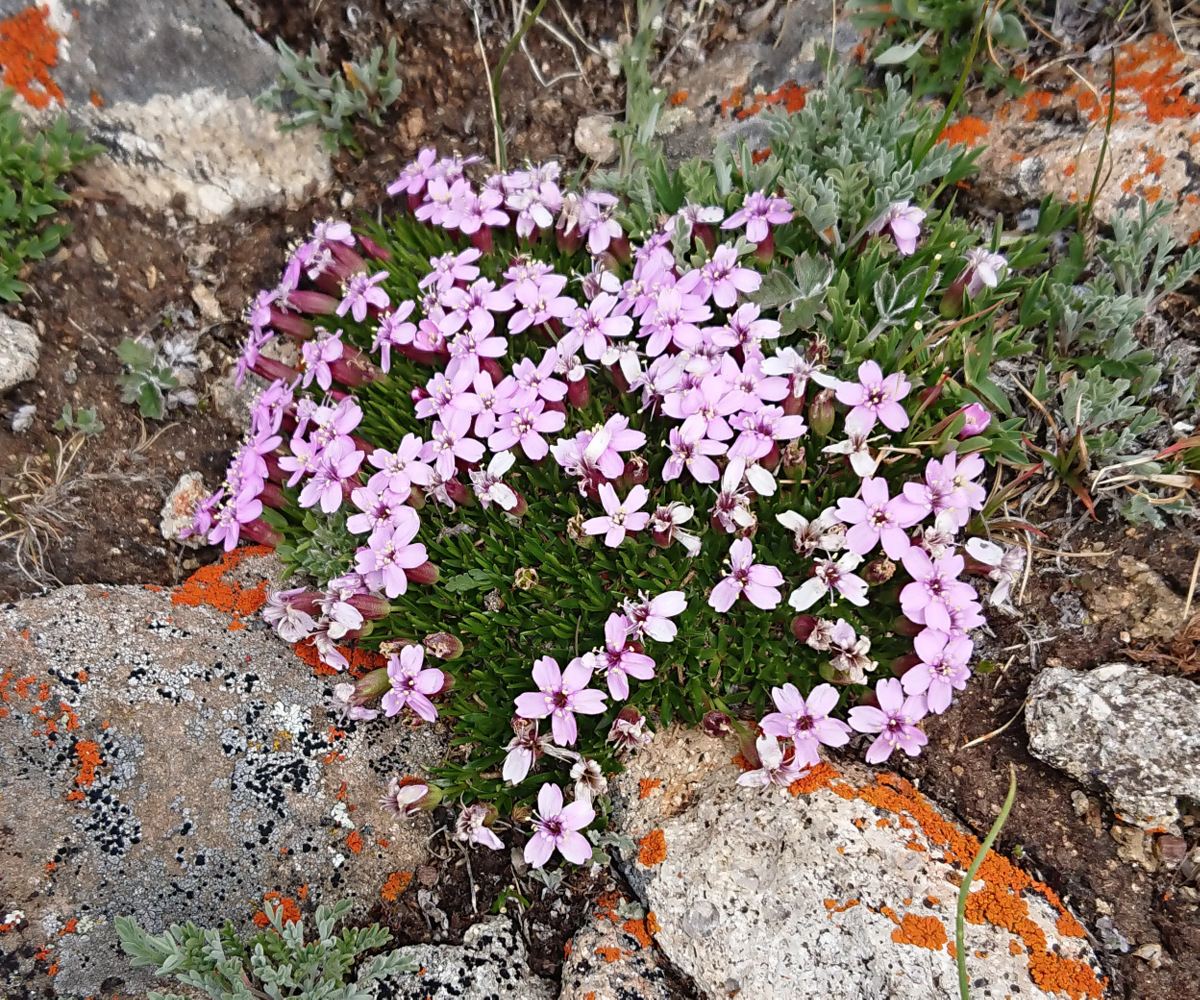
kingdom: Plantae
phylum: Tracheophyta
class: Magnoliopsida
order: Caryophyllales
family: Caryophyllaceae
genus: Silene
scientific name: Silene acaulis
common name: Moss campion
